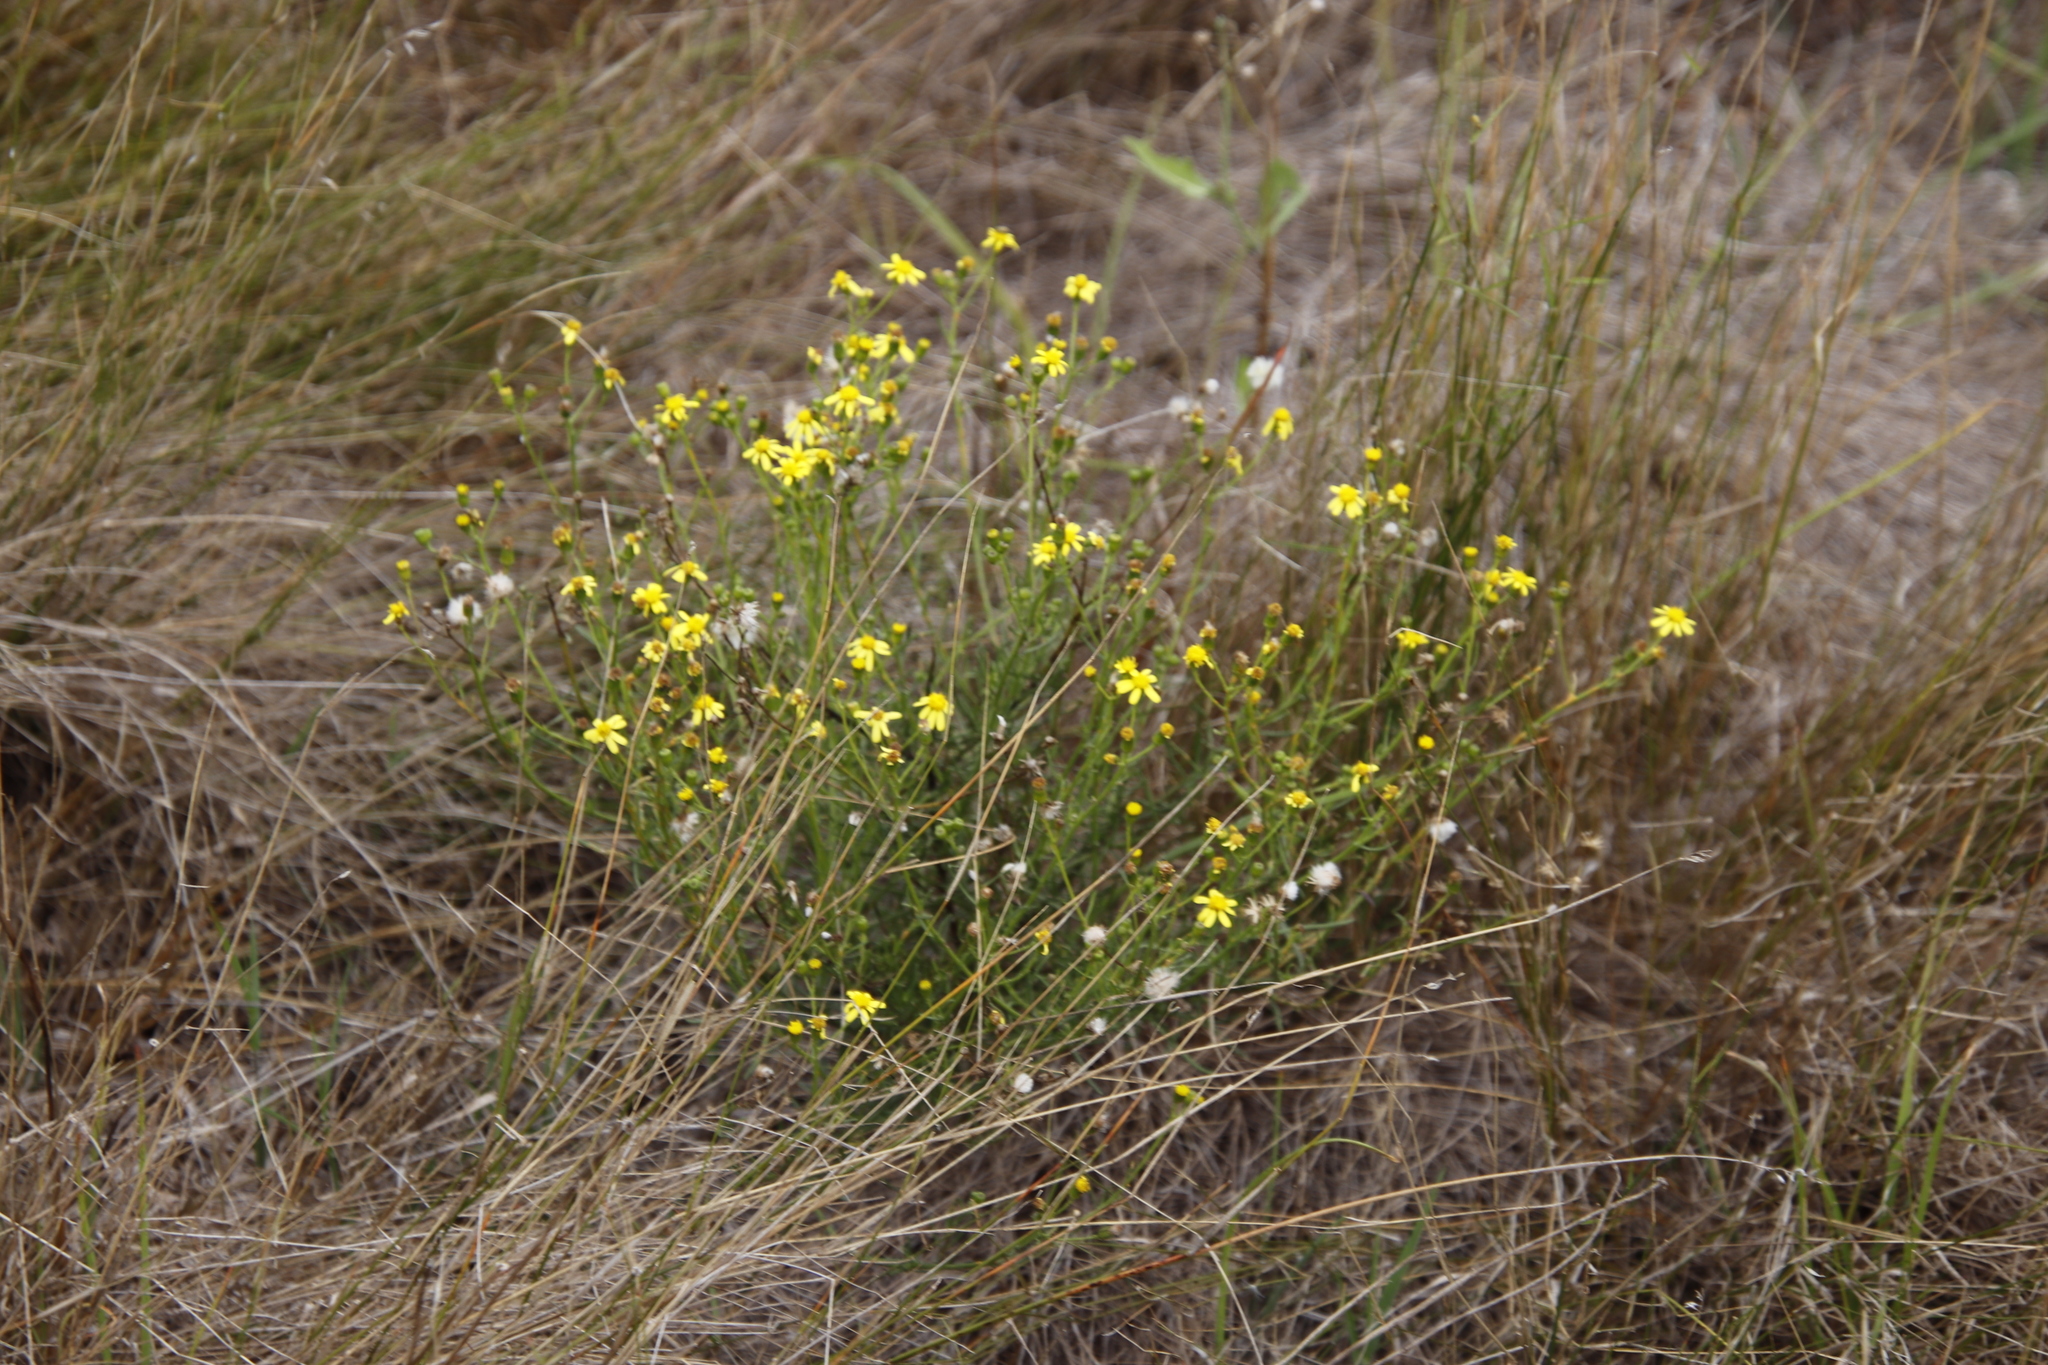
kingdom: Plantae
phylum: Tracheophyta
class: Magnoliopsida
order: Asterales
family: Asteraceae
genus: Senecio
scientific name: Senecio burchellii
